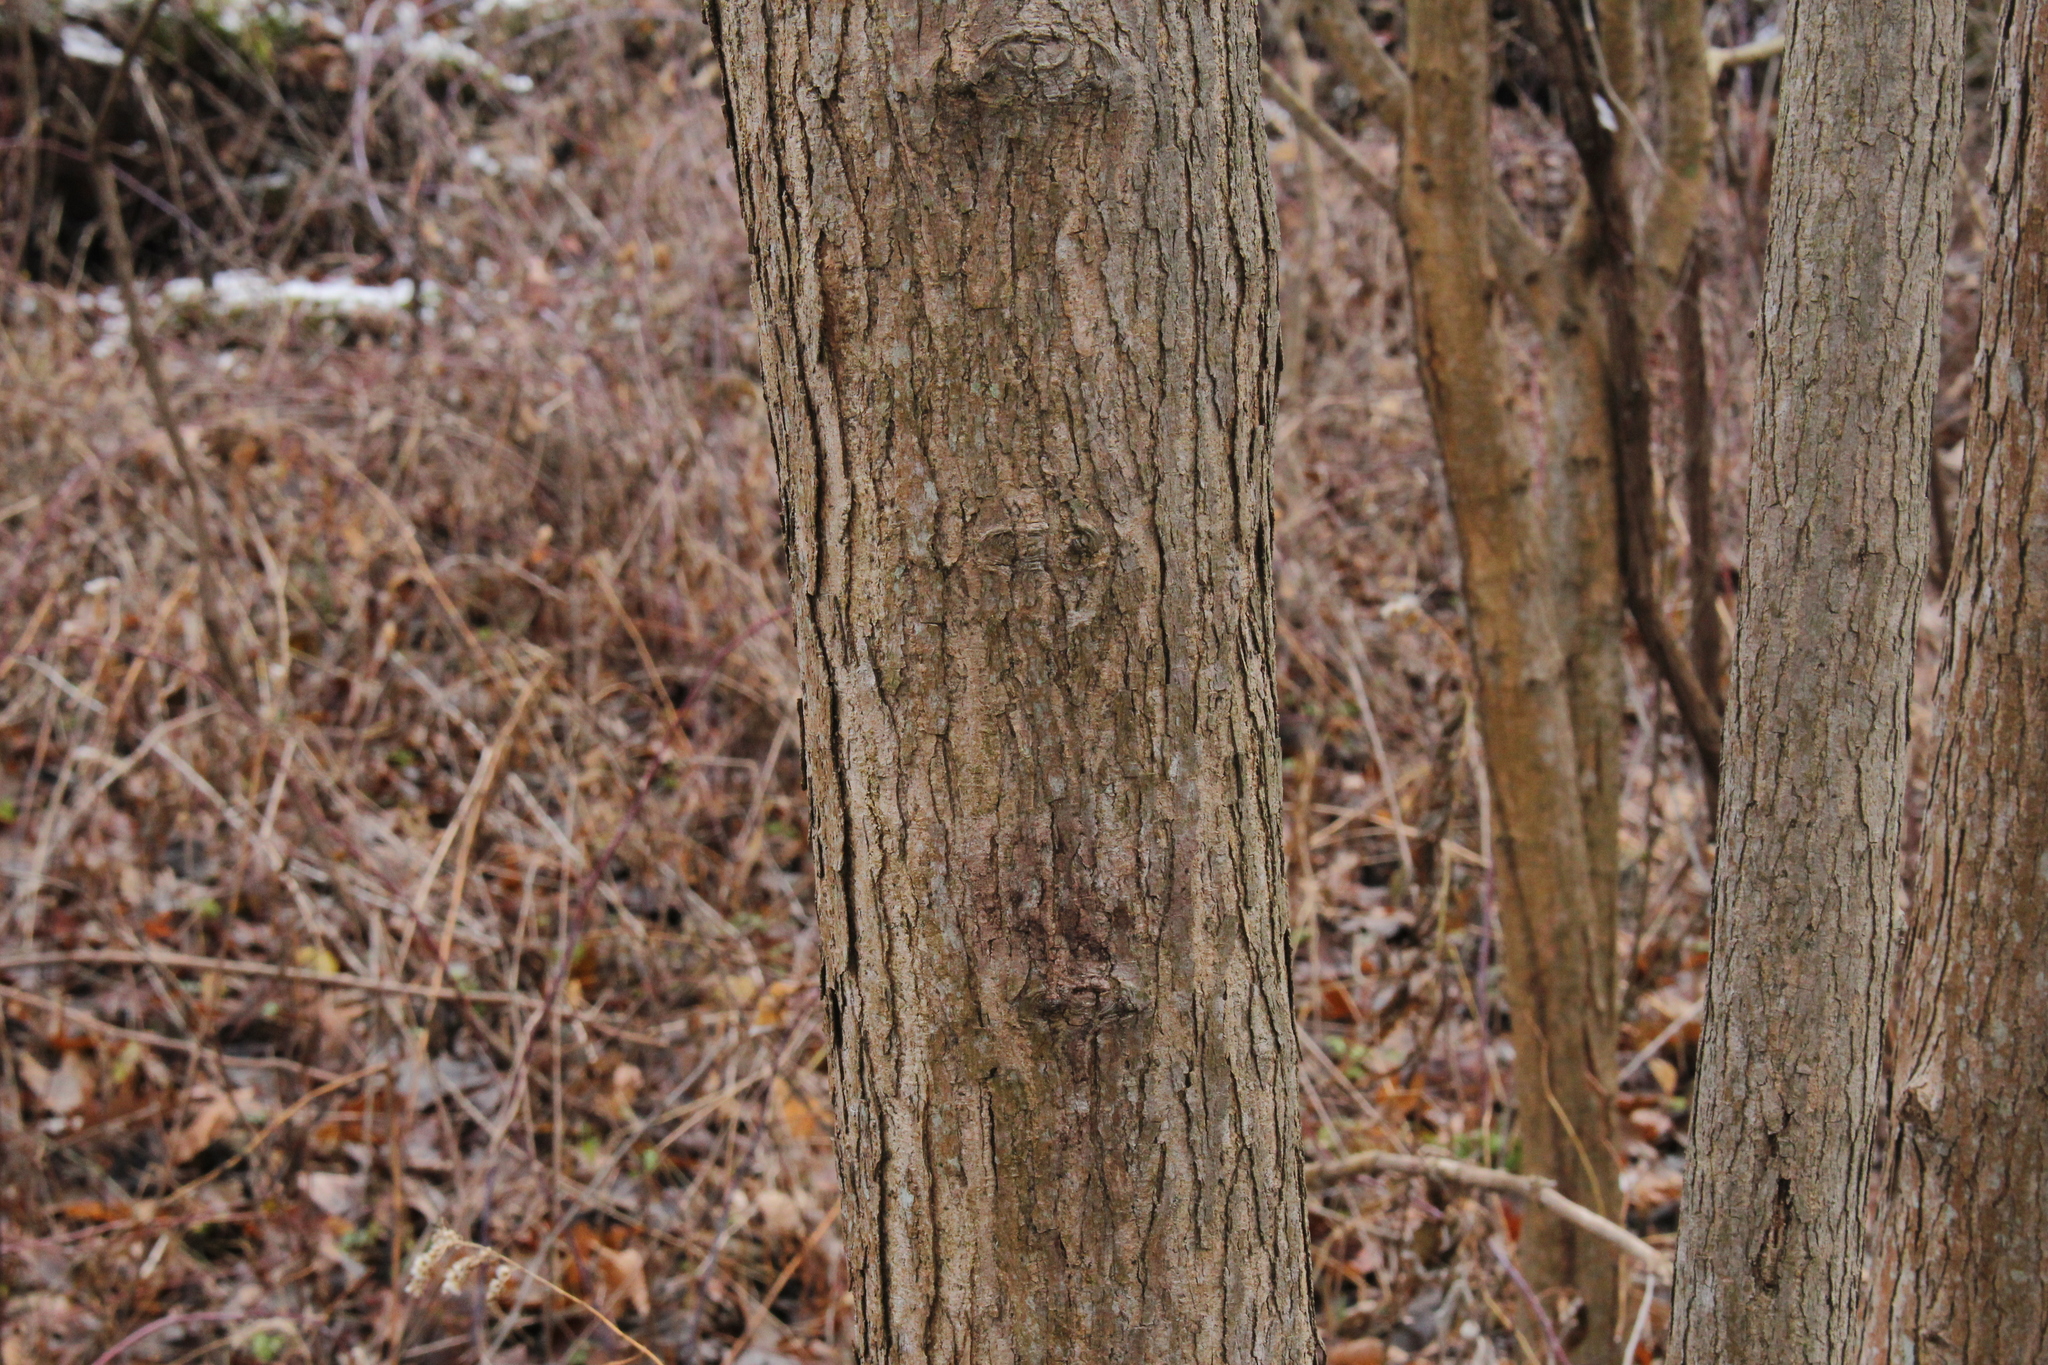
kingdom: Plantae
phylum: Tracheophyta
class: Magnoliopsida
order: Rosales
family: Moraceae
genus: Morus
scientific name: Morus rubra
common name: Red mulberry
